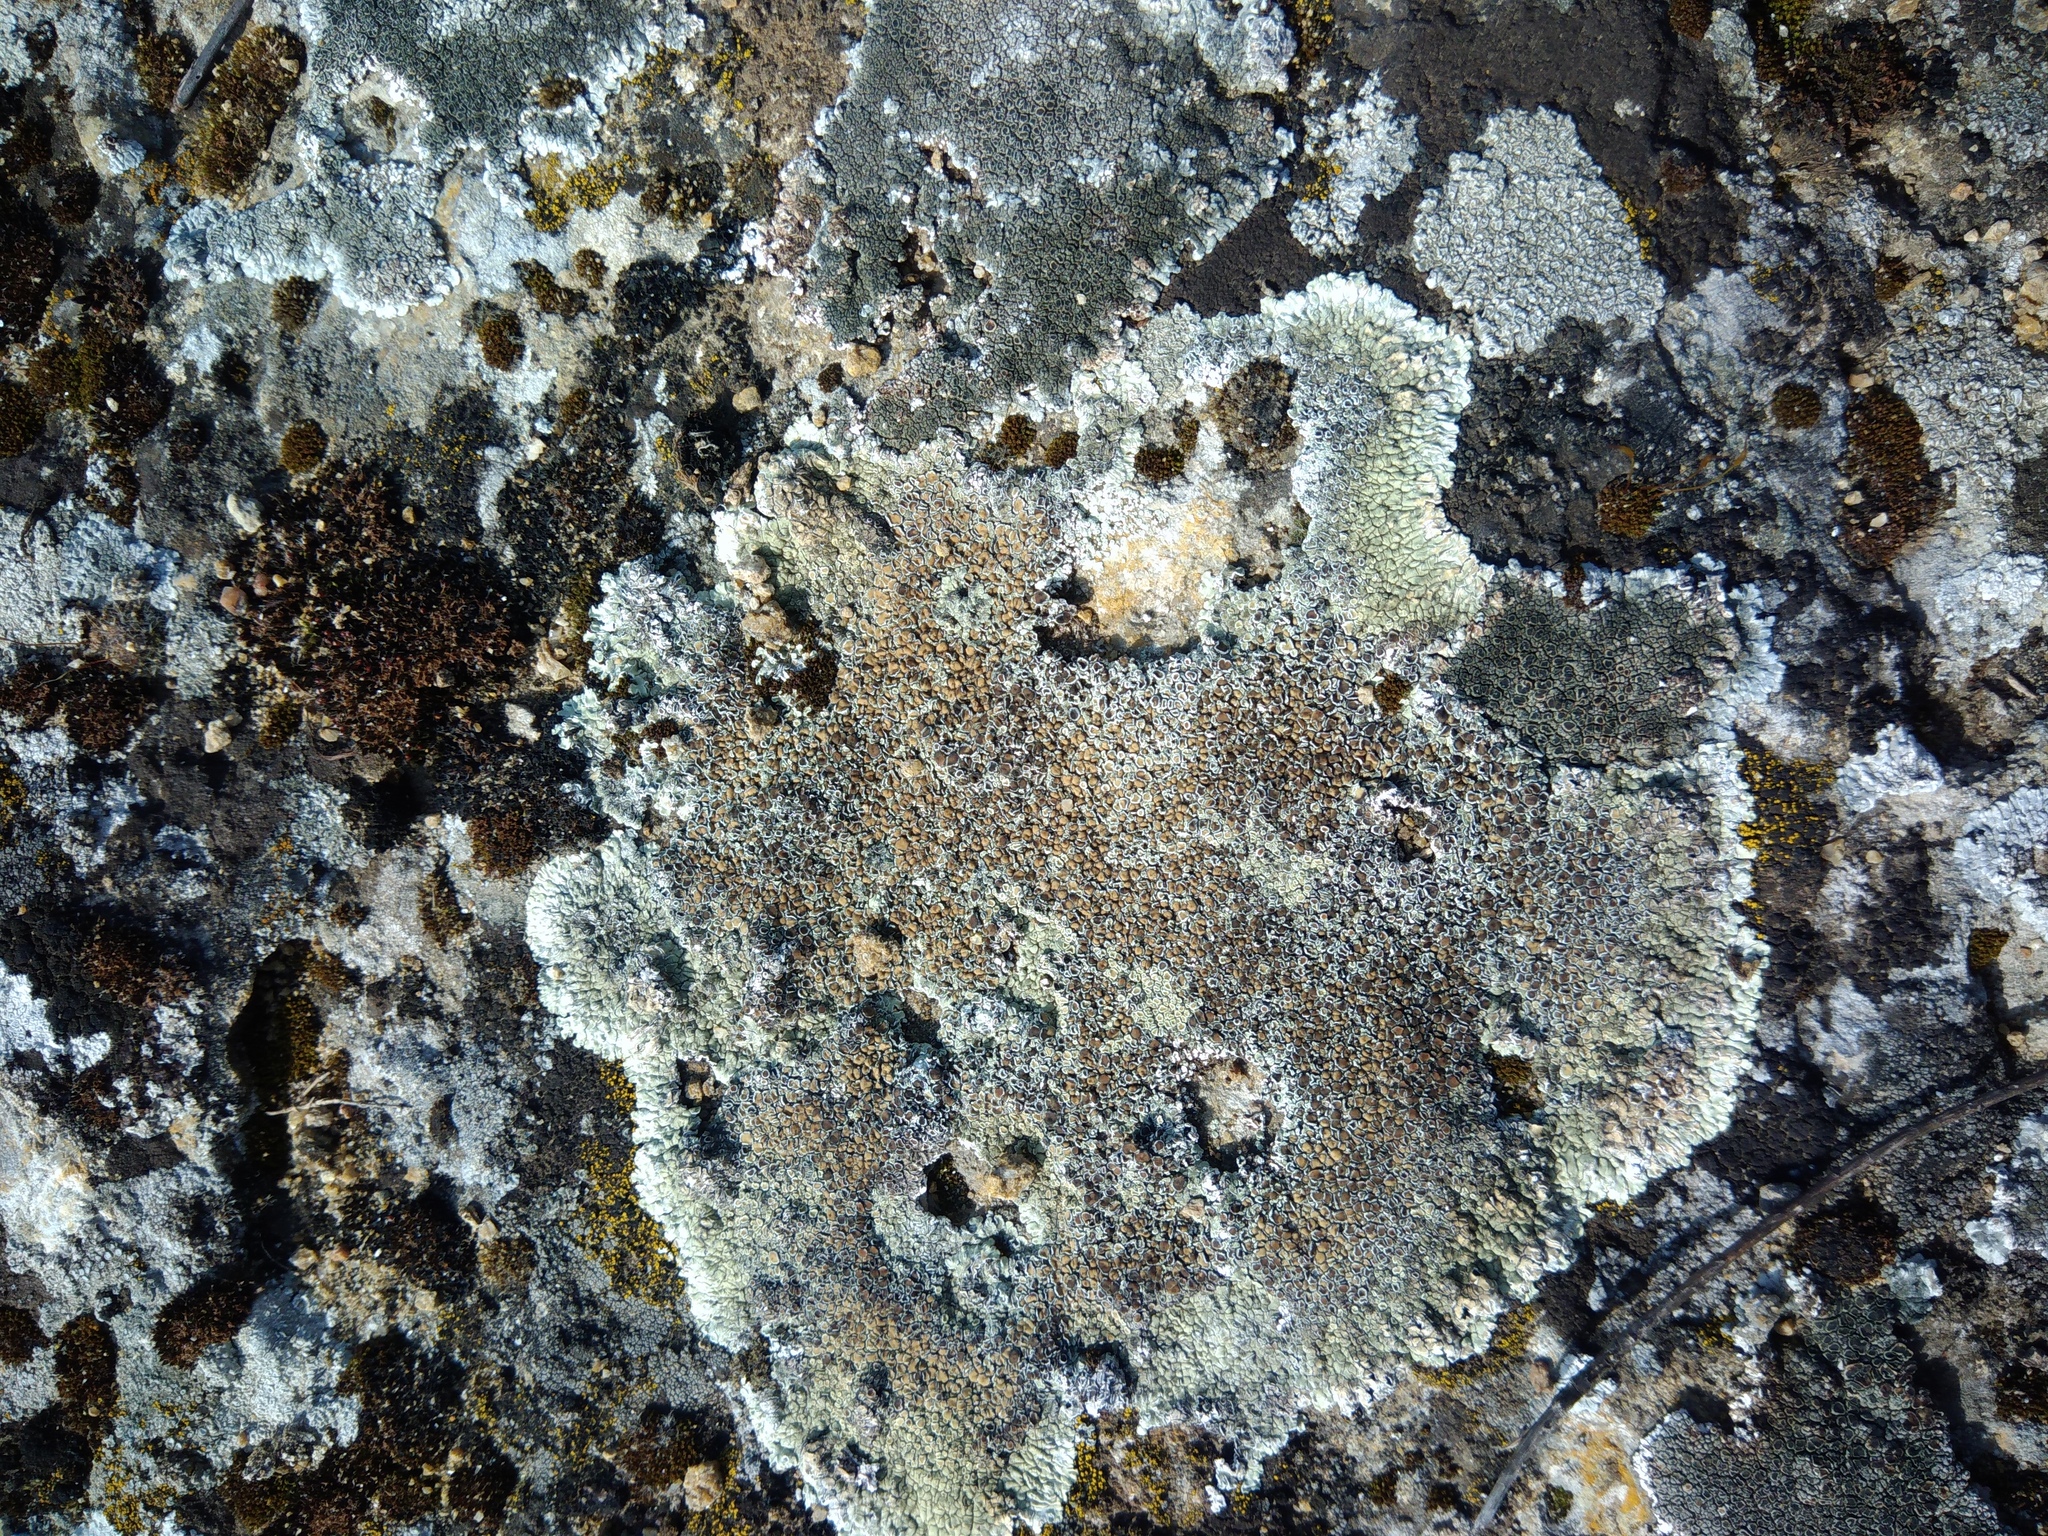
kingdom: Fungi
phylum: Ascomycota
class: Lecanoromycetes
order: Lecanorales
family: Lecanoraceae
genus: Protoparmeliopsis
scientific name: Protoparmeliopsis muralis
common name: Stonewall rim lichen
